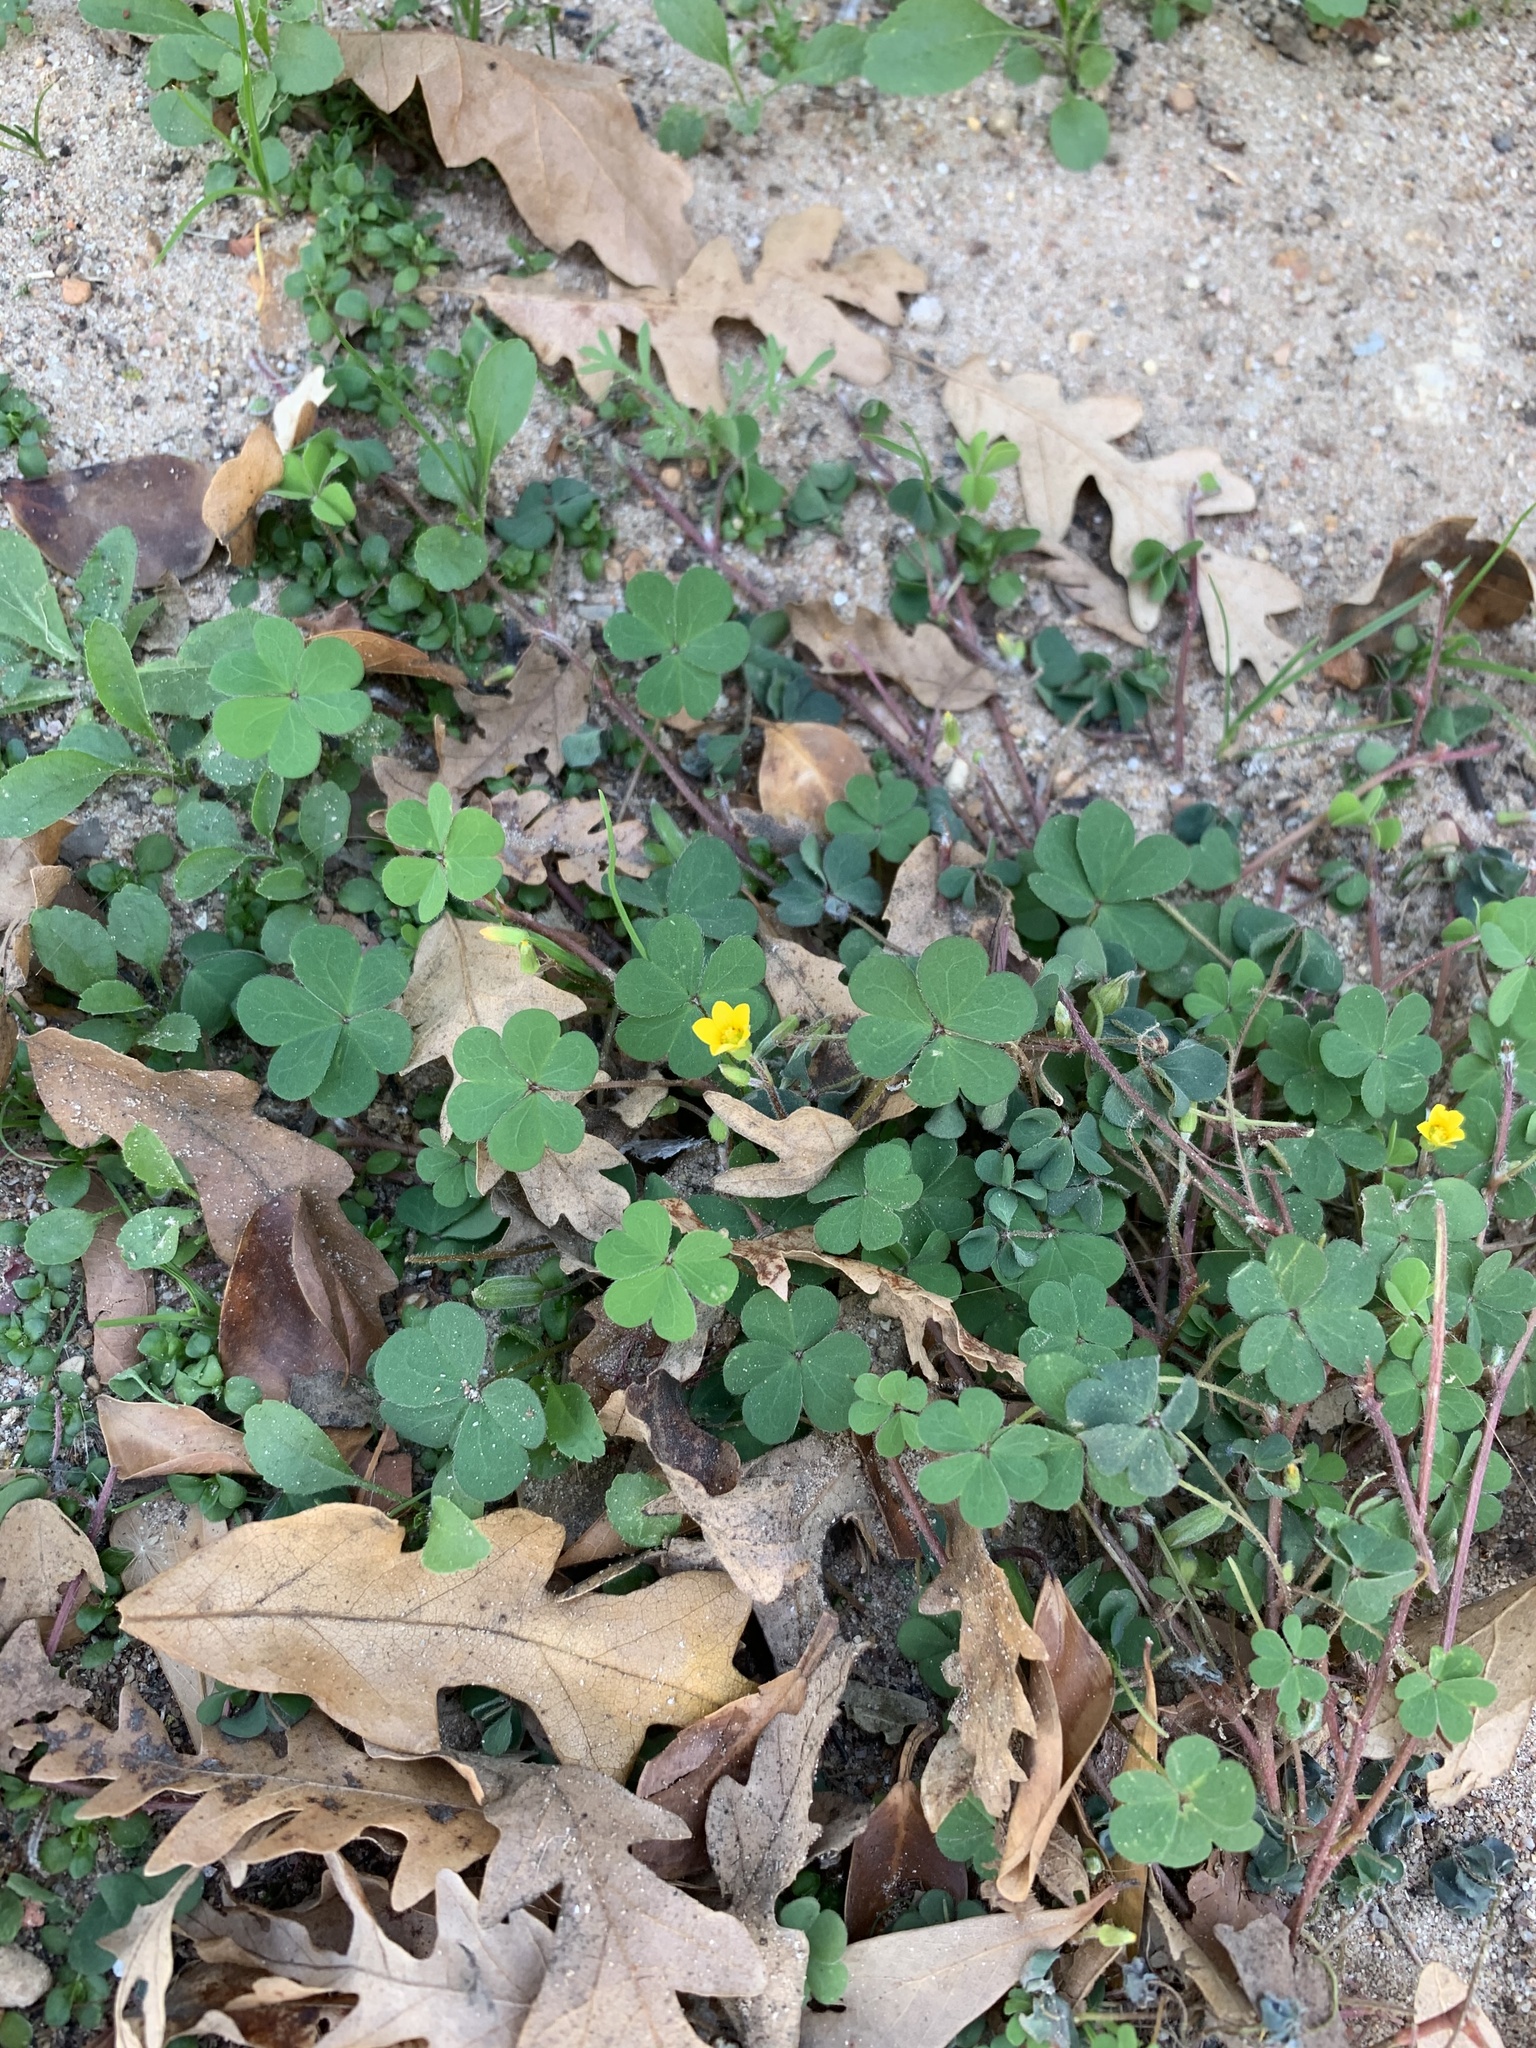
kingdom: Plantae
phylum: Tracheophyta
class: Magnoliopsida
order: Oxalidales
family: Oxalidaceae
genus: Oxalis
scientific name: Oxalis corniculata
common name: Procumbent yellow-sorrel
